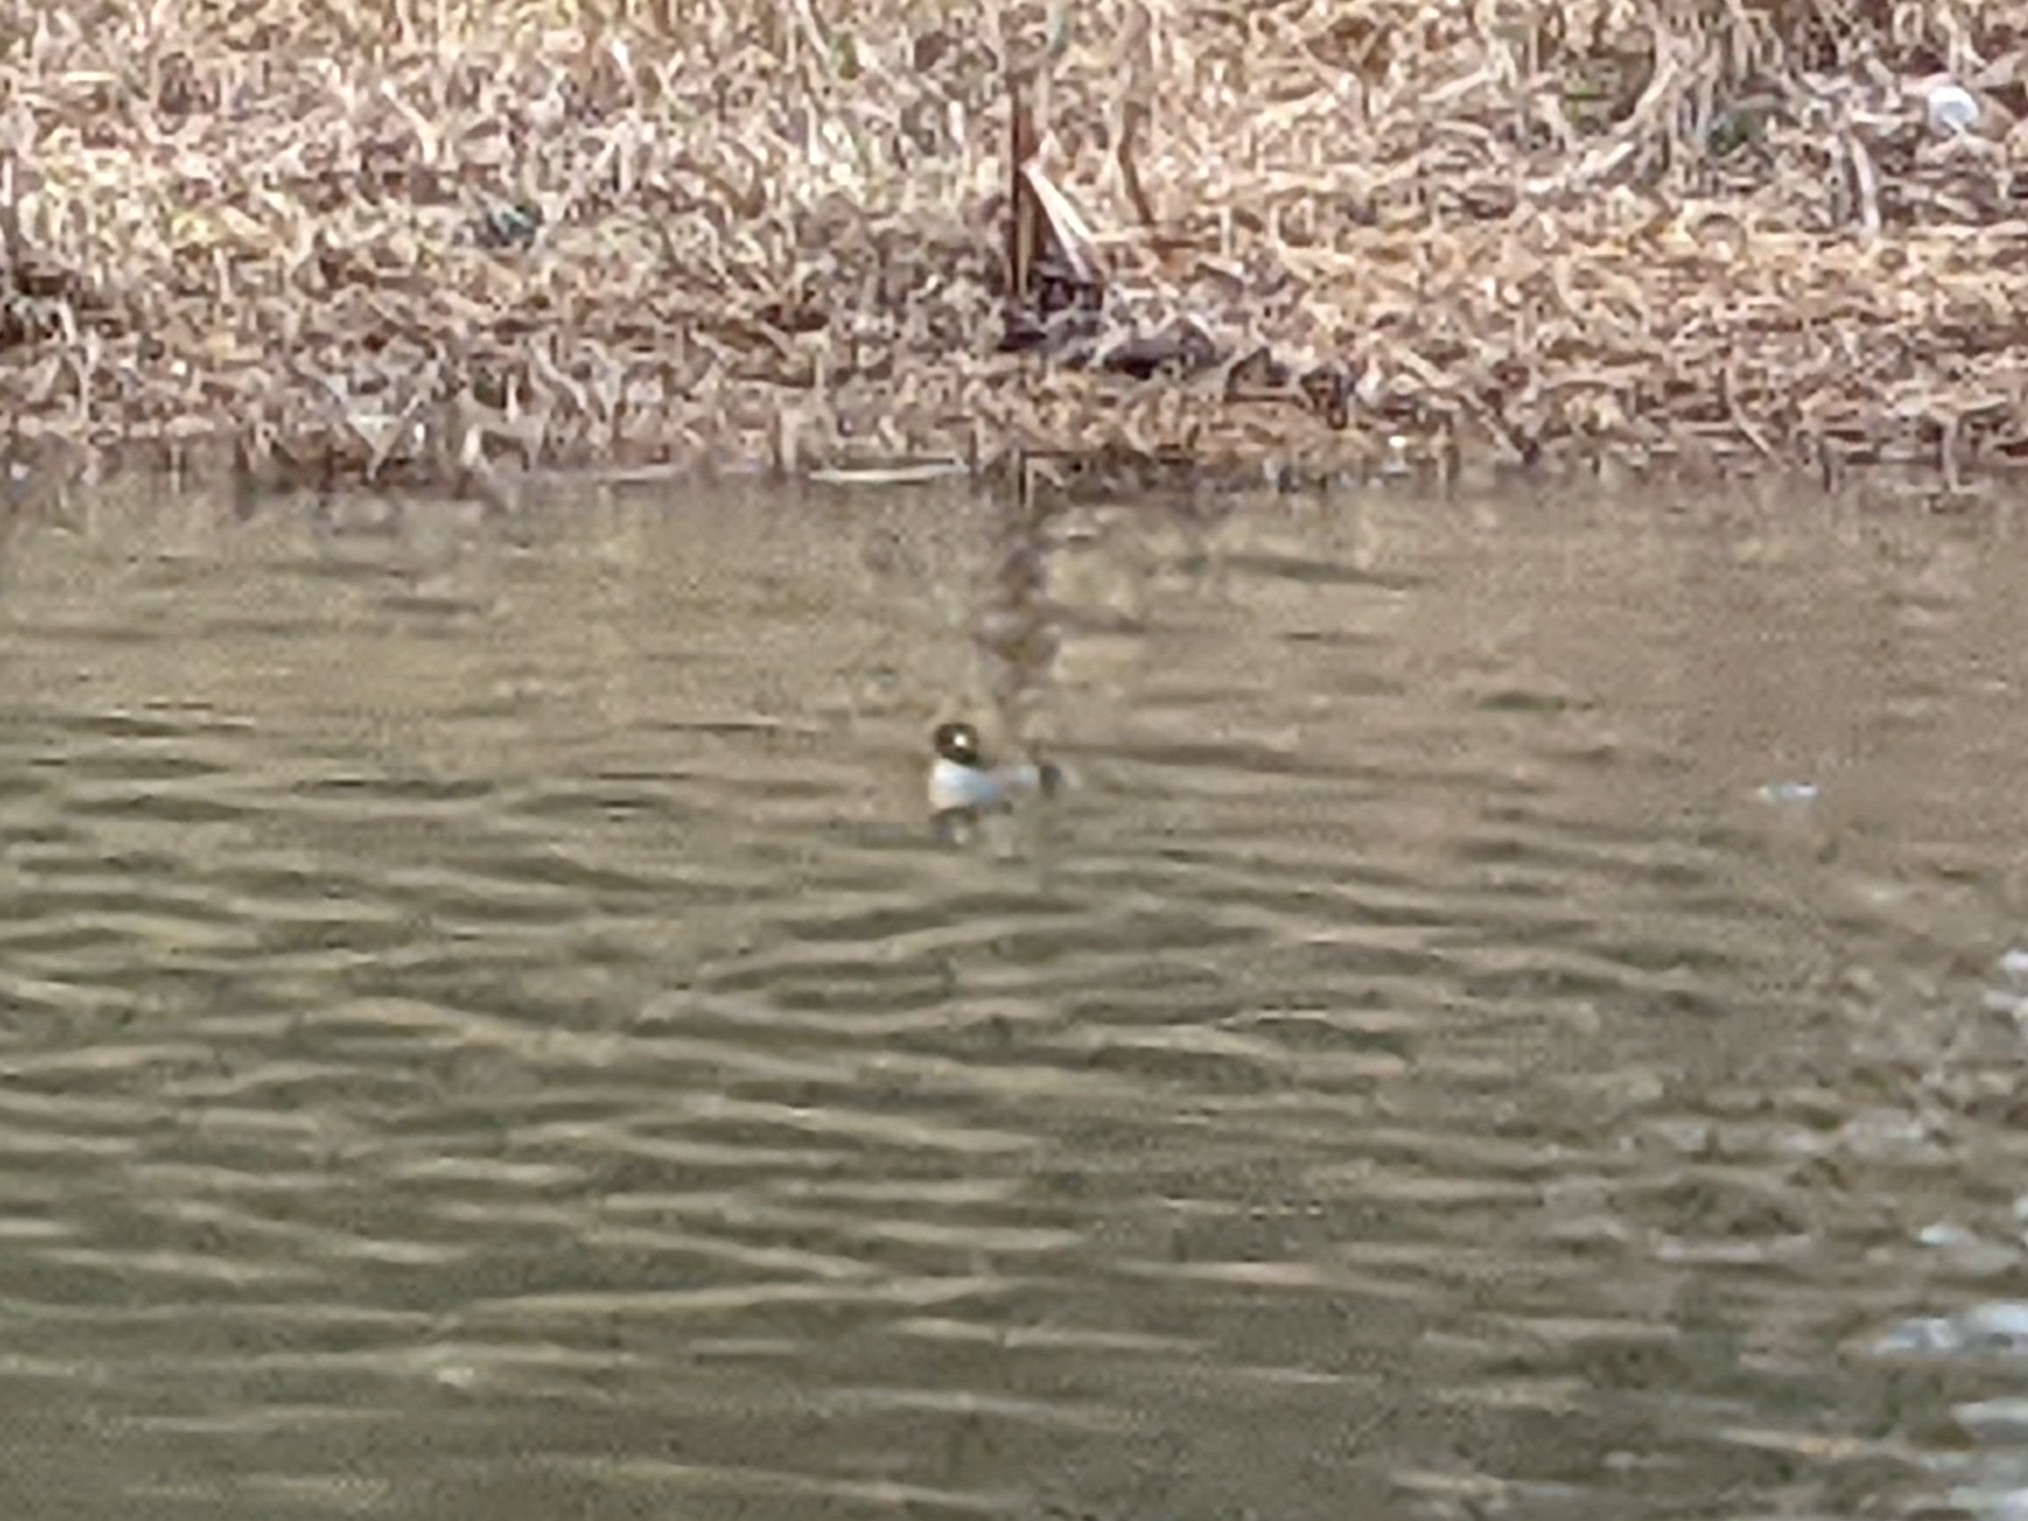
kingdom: Animalia
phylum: Chordata
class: Aves
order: Anseriformes
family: Anatidae
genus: Bucephala
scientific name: Bucephala albeola
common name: Bufflehead
